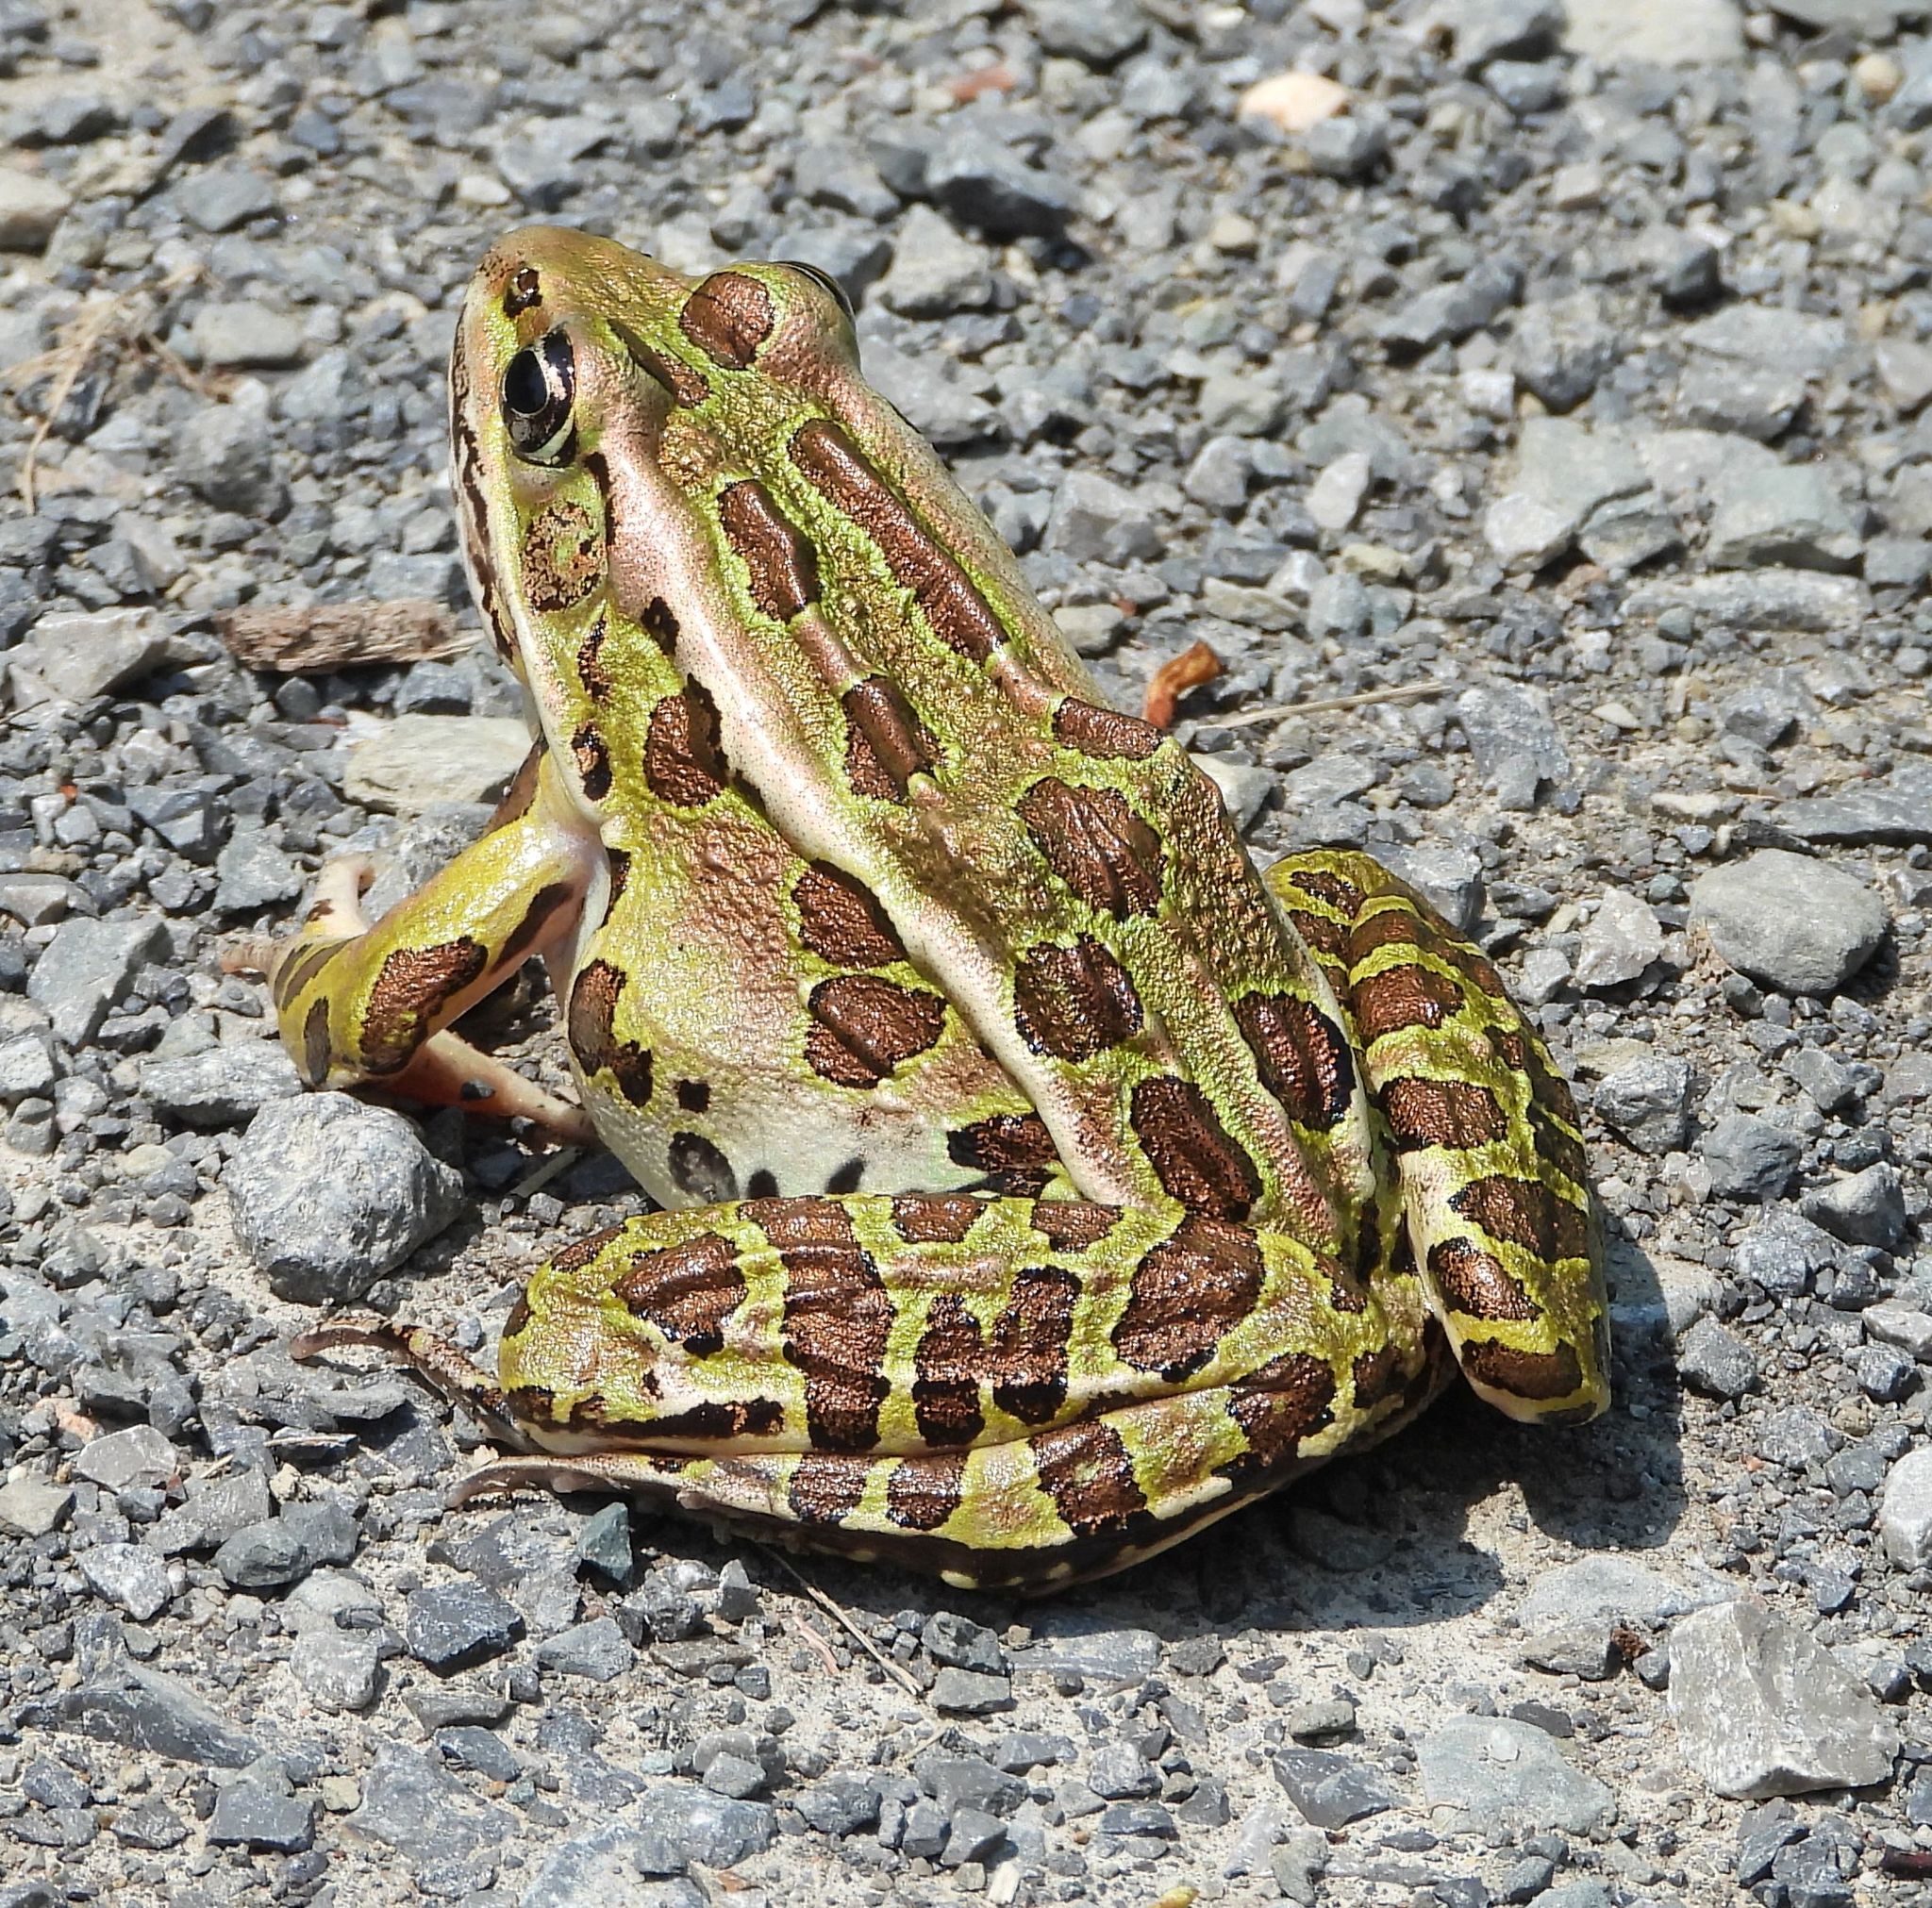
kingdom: Animalia
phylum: Chordata
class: Amphibia
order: Anura
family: Ranidae
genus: Lithobates
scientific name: Lithobates pipiens
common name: Northern leopard frog
